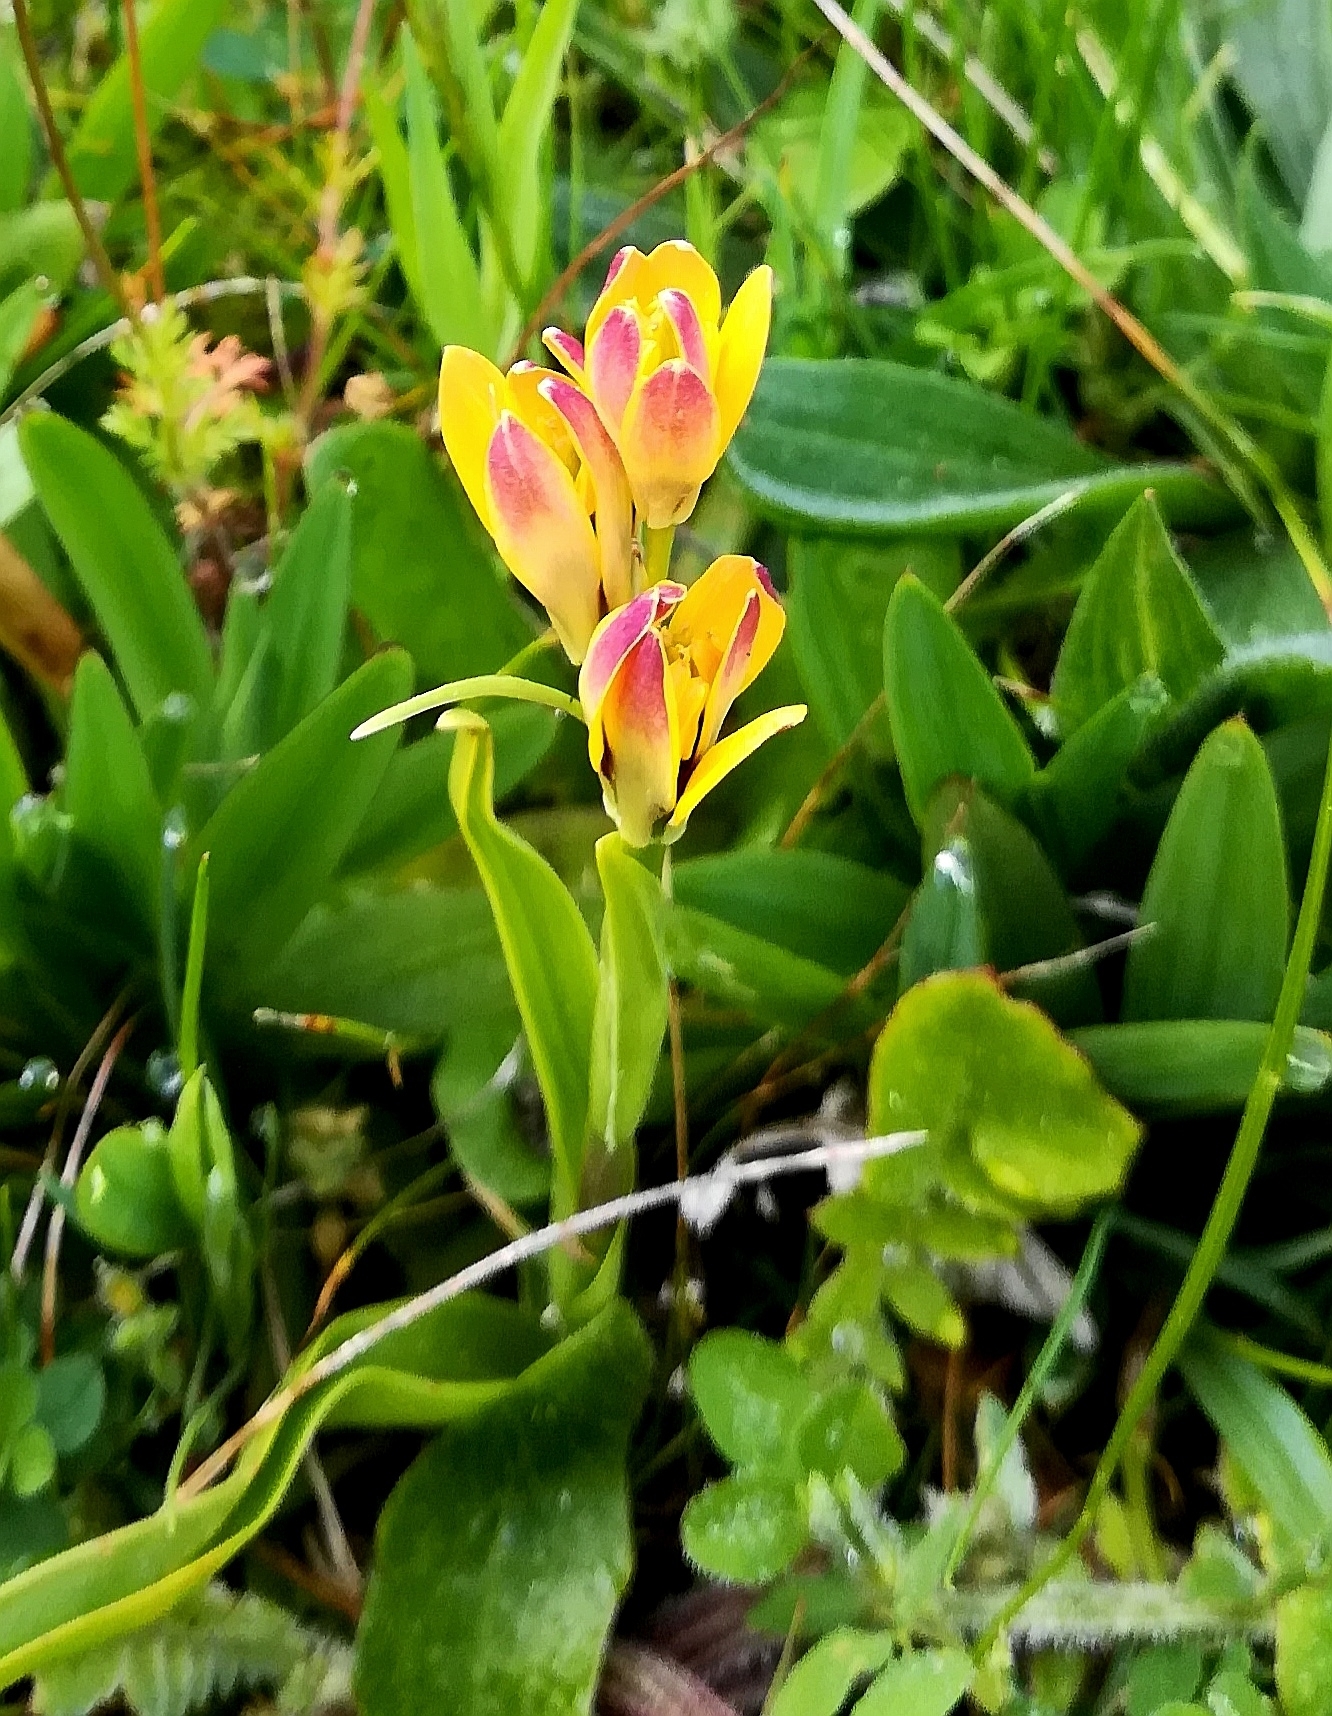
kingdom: Plantae
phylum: Tracheophyta
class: Liliopsida
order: Liliales
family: Colchicaceae
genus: Baeometra
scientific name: Baeometra uniflora
